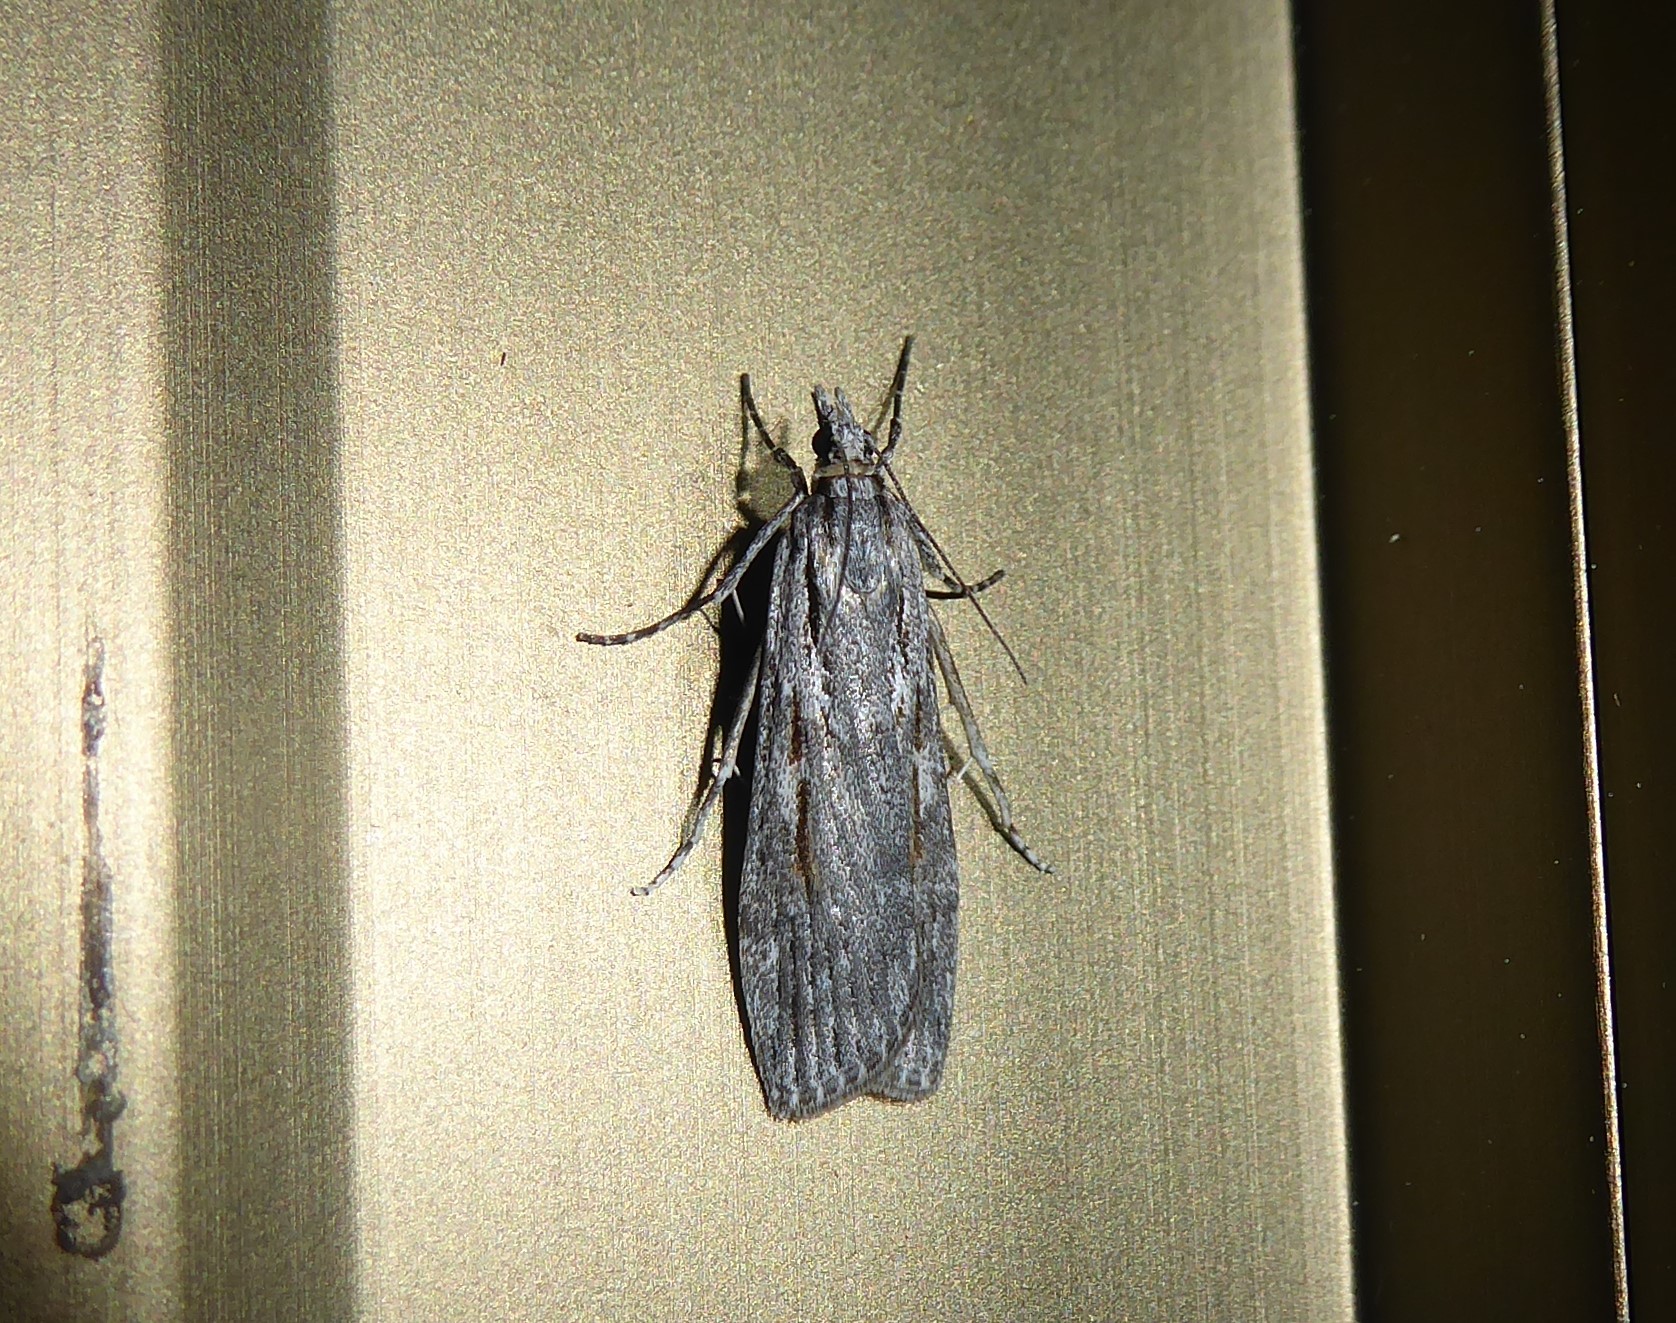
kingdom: Animalia
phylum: Arthropoda
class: Insecta
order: Lepidoptera
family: Crambidae
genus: Scoparia
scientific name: Scoparia indistinctalis
